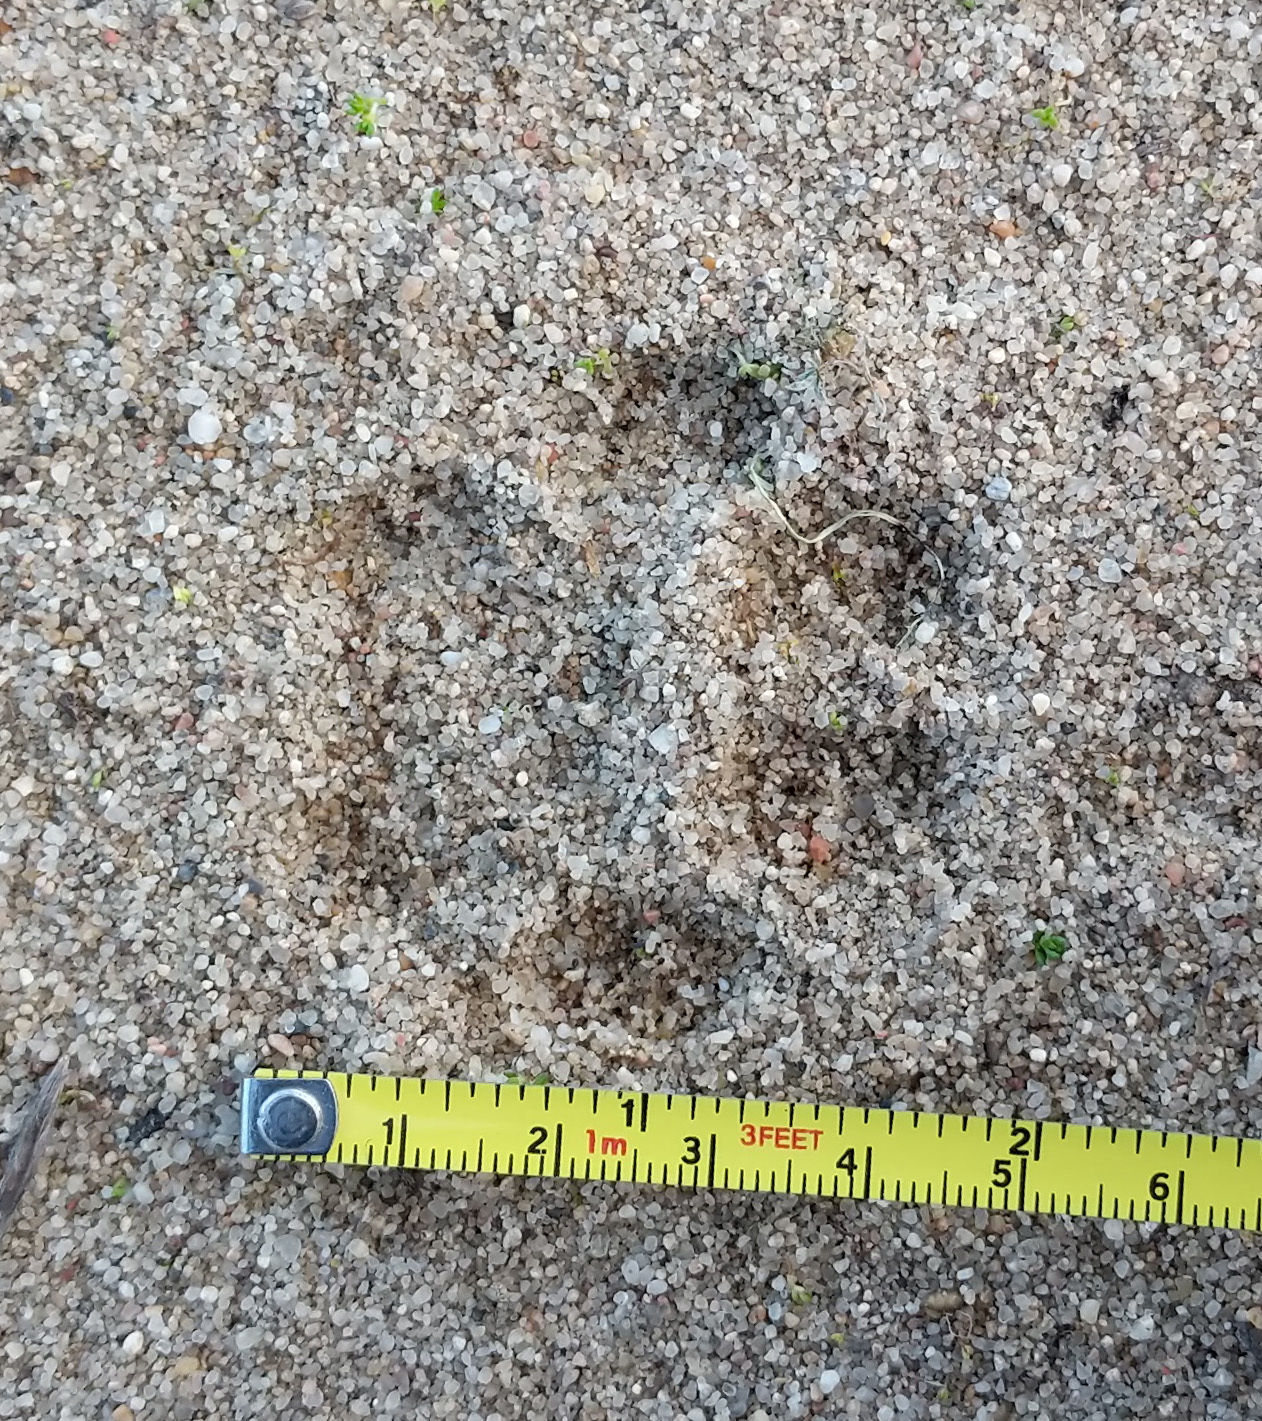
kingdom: Animalia
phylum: Chordata
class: Mammalia
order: Carnivora
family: Felidae
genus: Lynx
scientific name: Lynx rufus
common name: Bobcat
